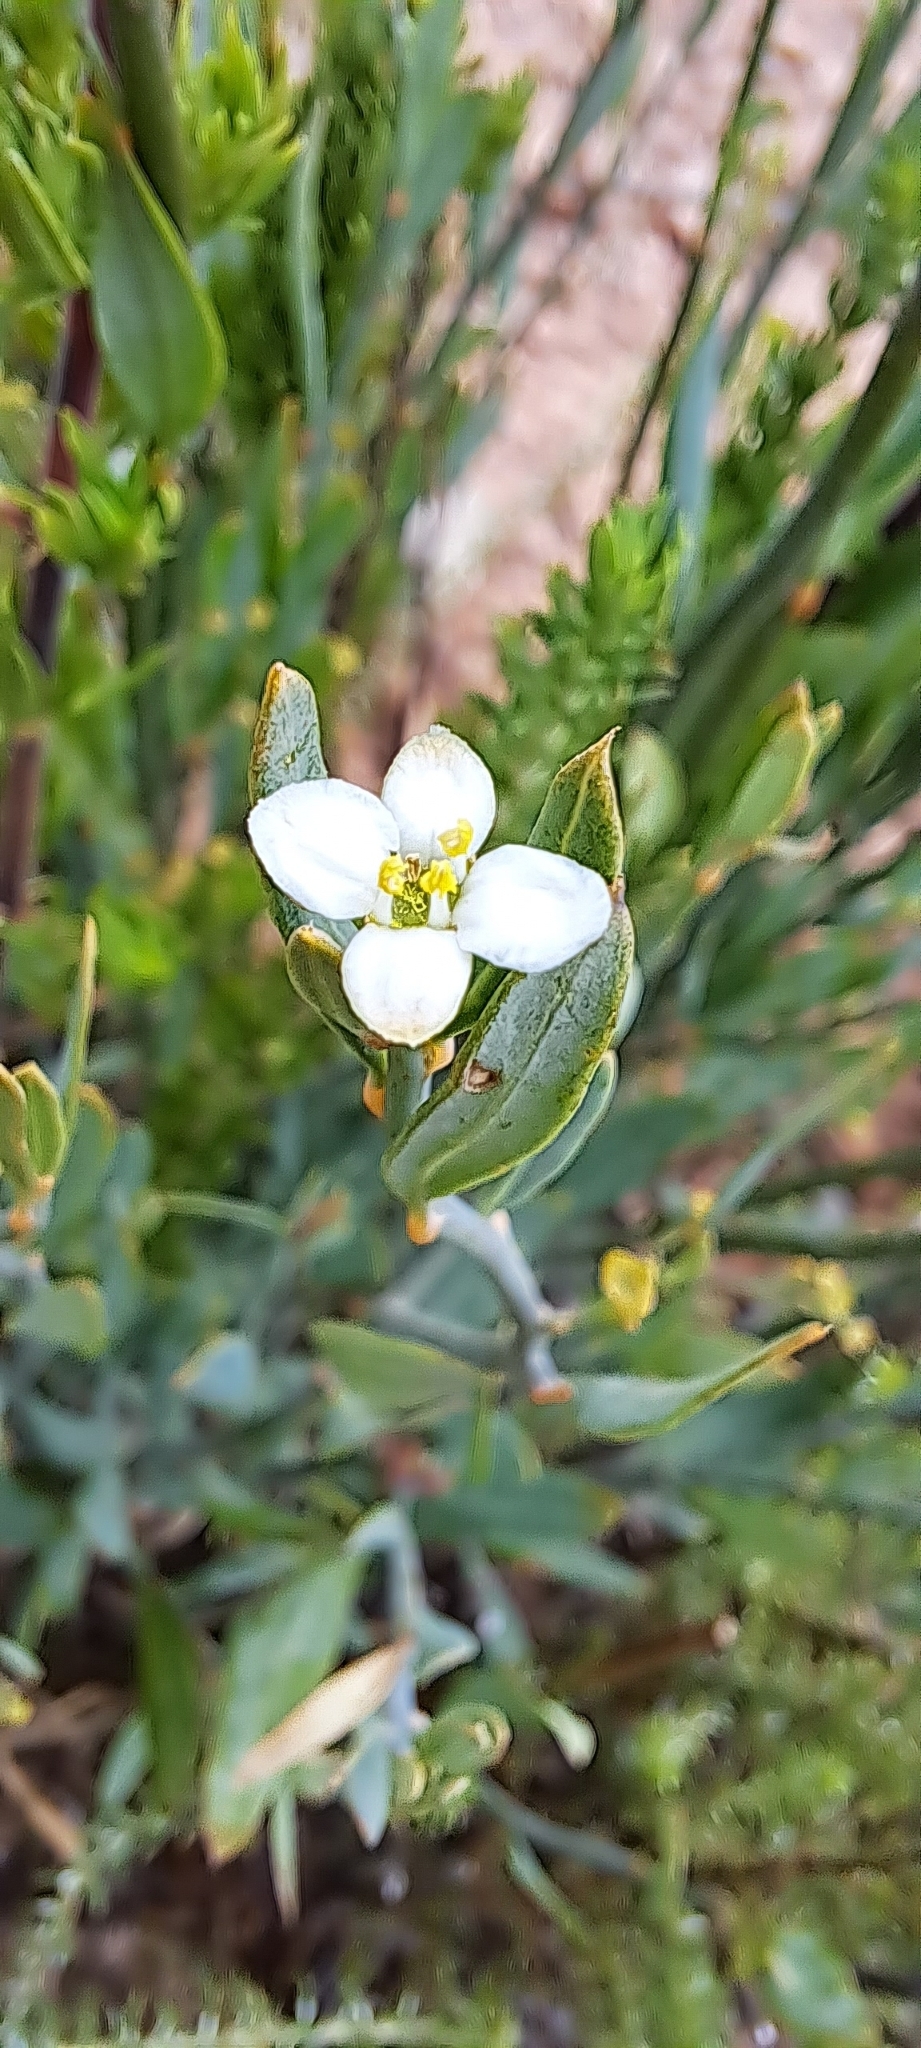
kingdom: Plantae
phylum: Tracheophyta
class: Magnoliopsida
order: Solanales
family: Montiniaceae
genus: Montinia
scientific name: Montinia caryophyllacea
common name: Wild clove-bush
